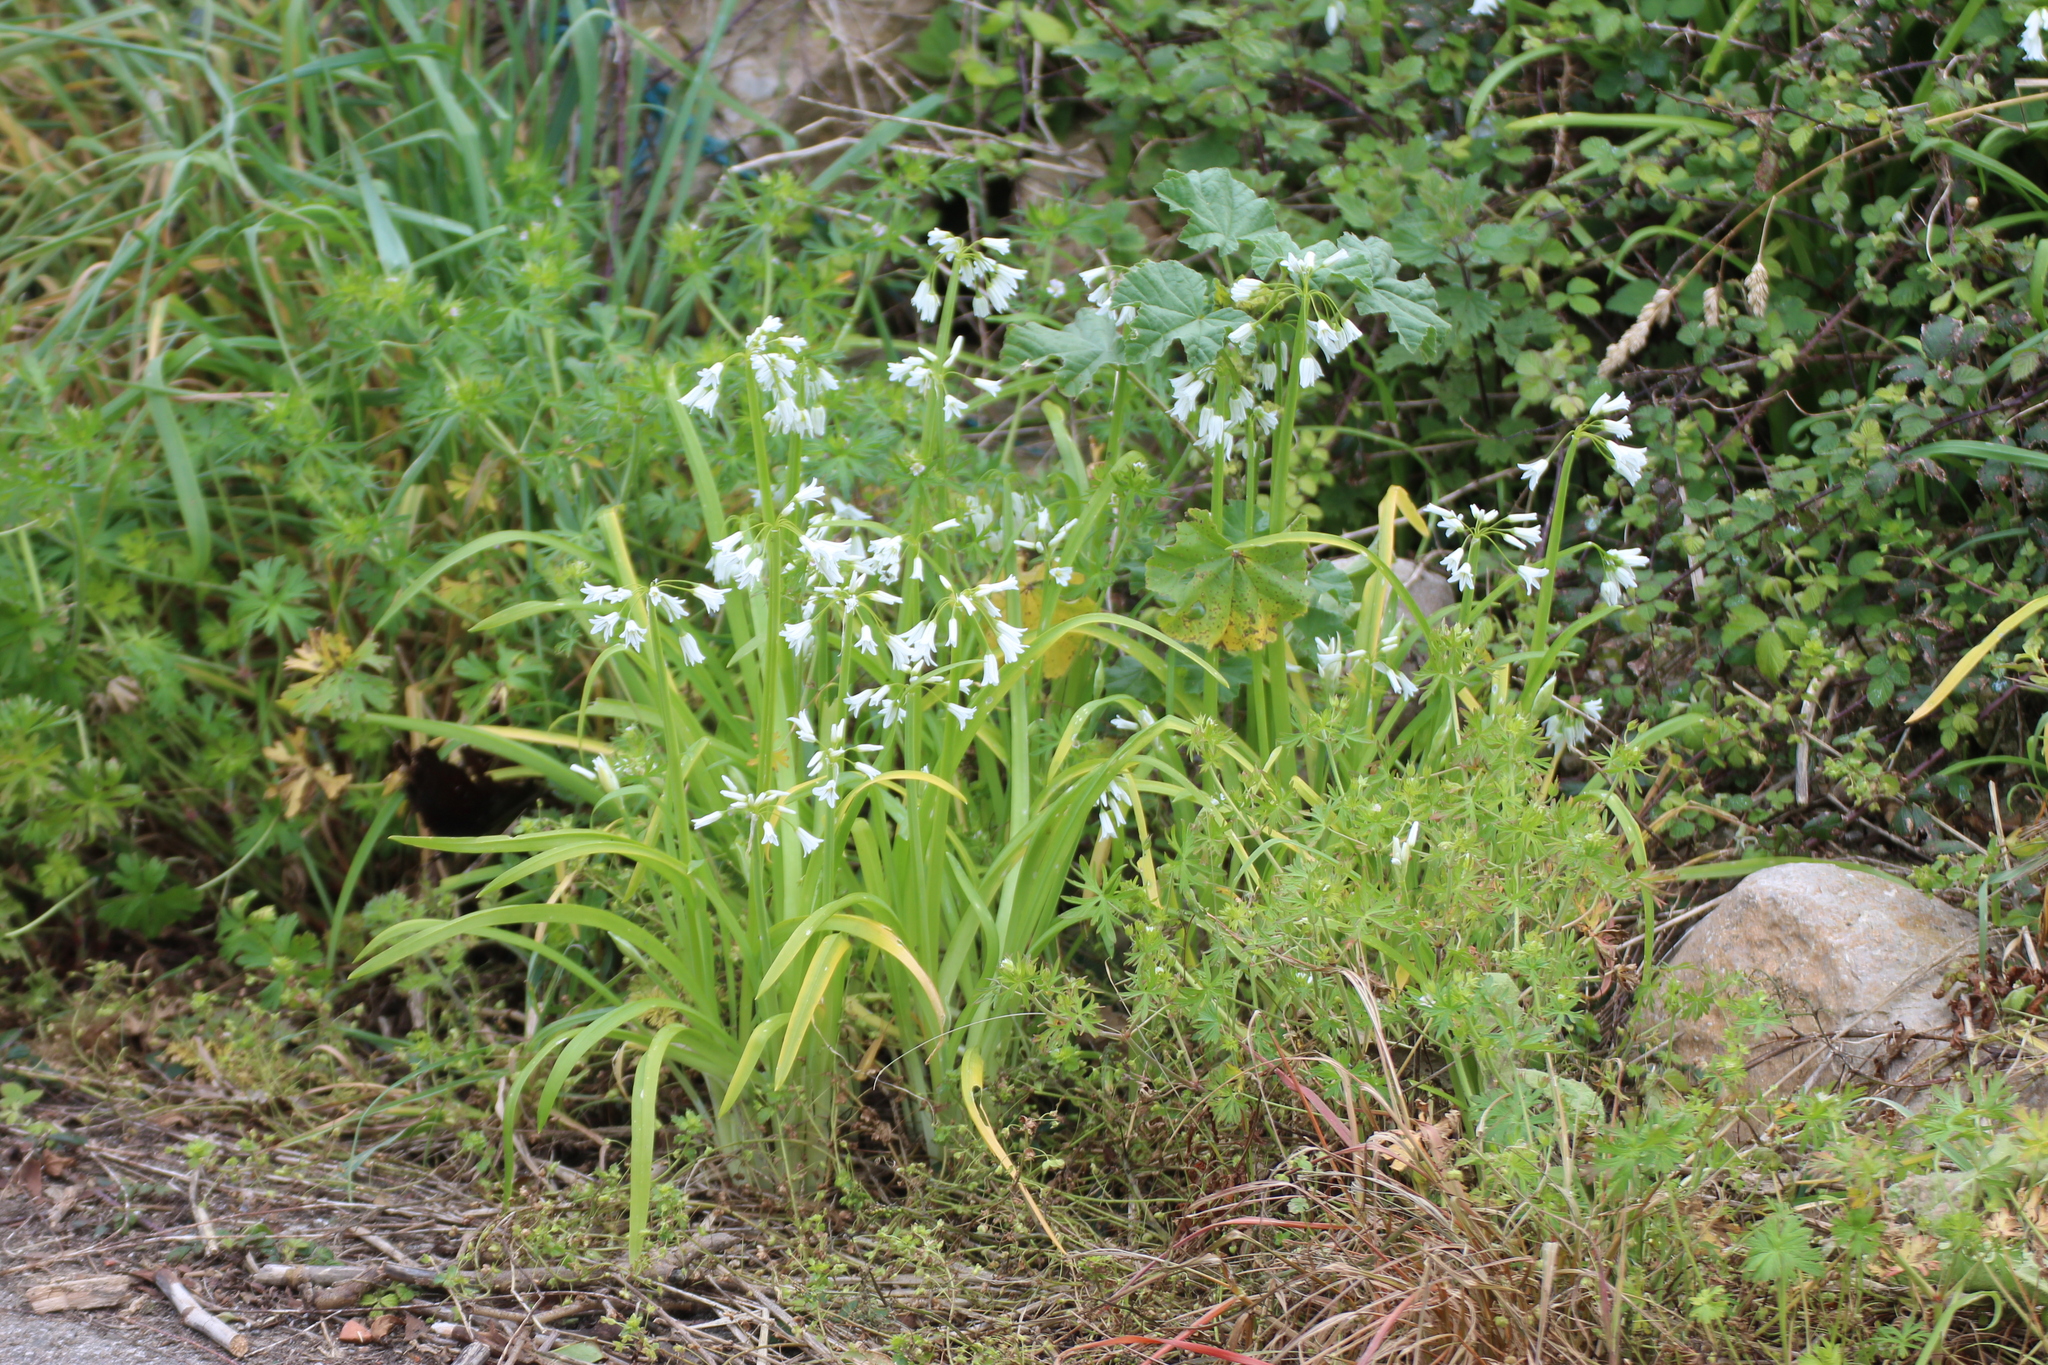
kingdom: Plantae
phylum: Tracheophyta
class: Liliopsida
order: Asparagales
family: Amaryllidaceae
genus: Allium
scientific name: Allium triquetrum
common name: Three-cornered garlic
